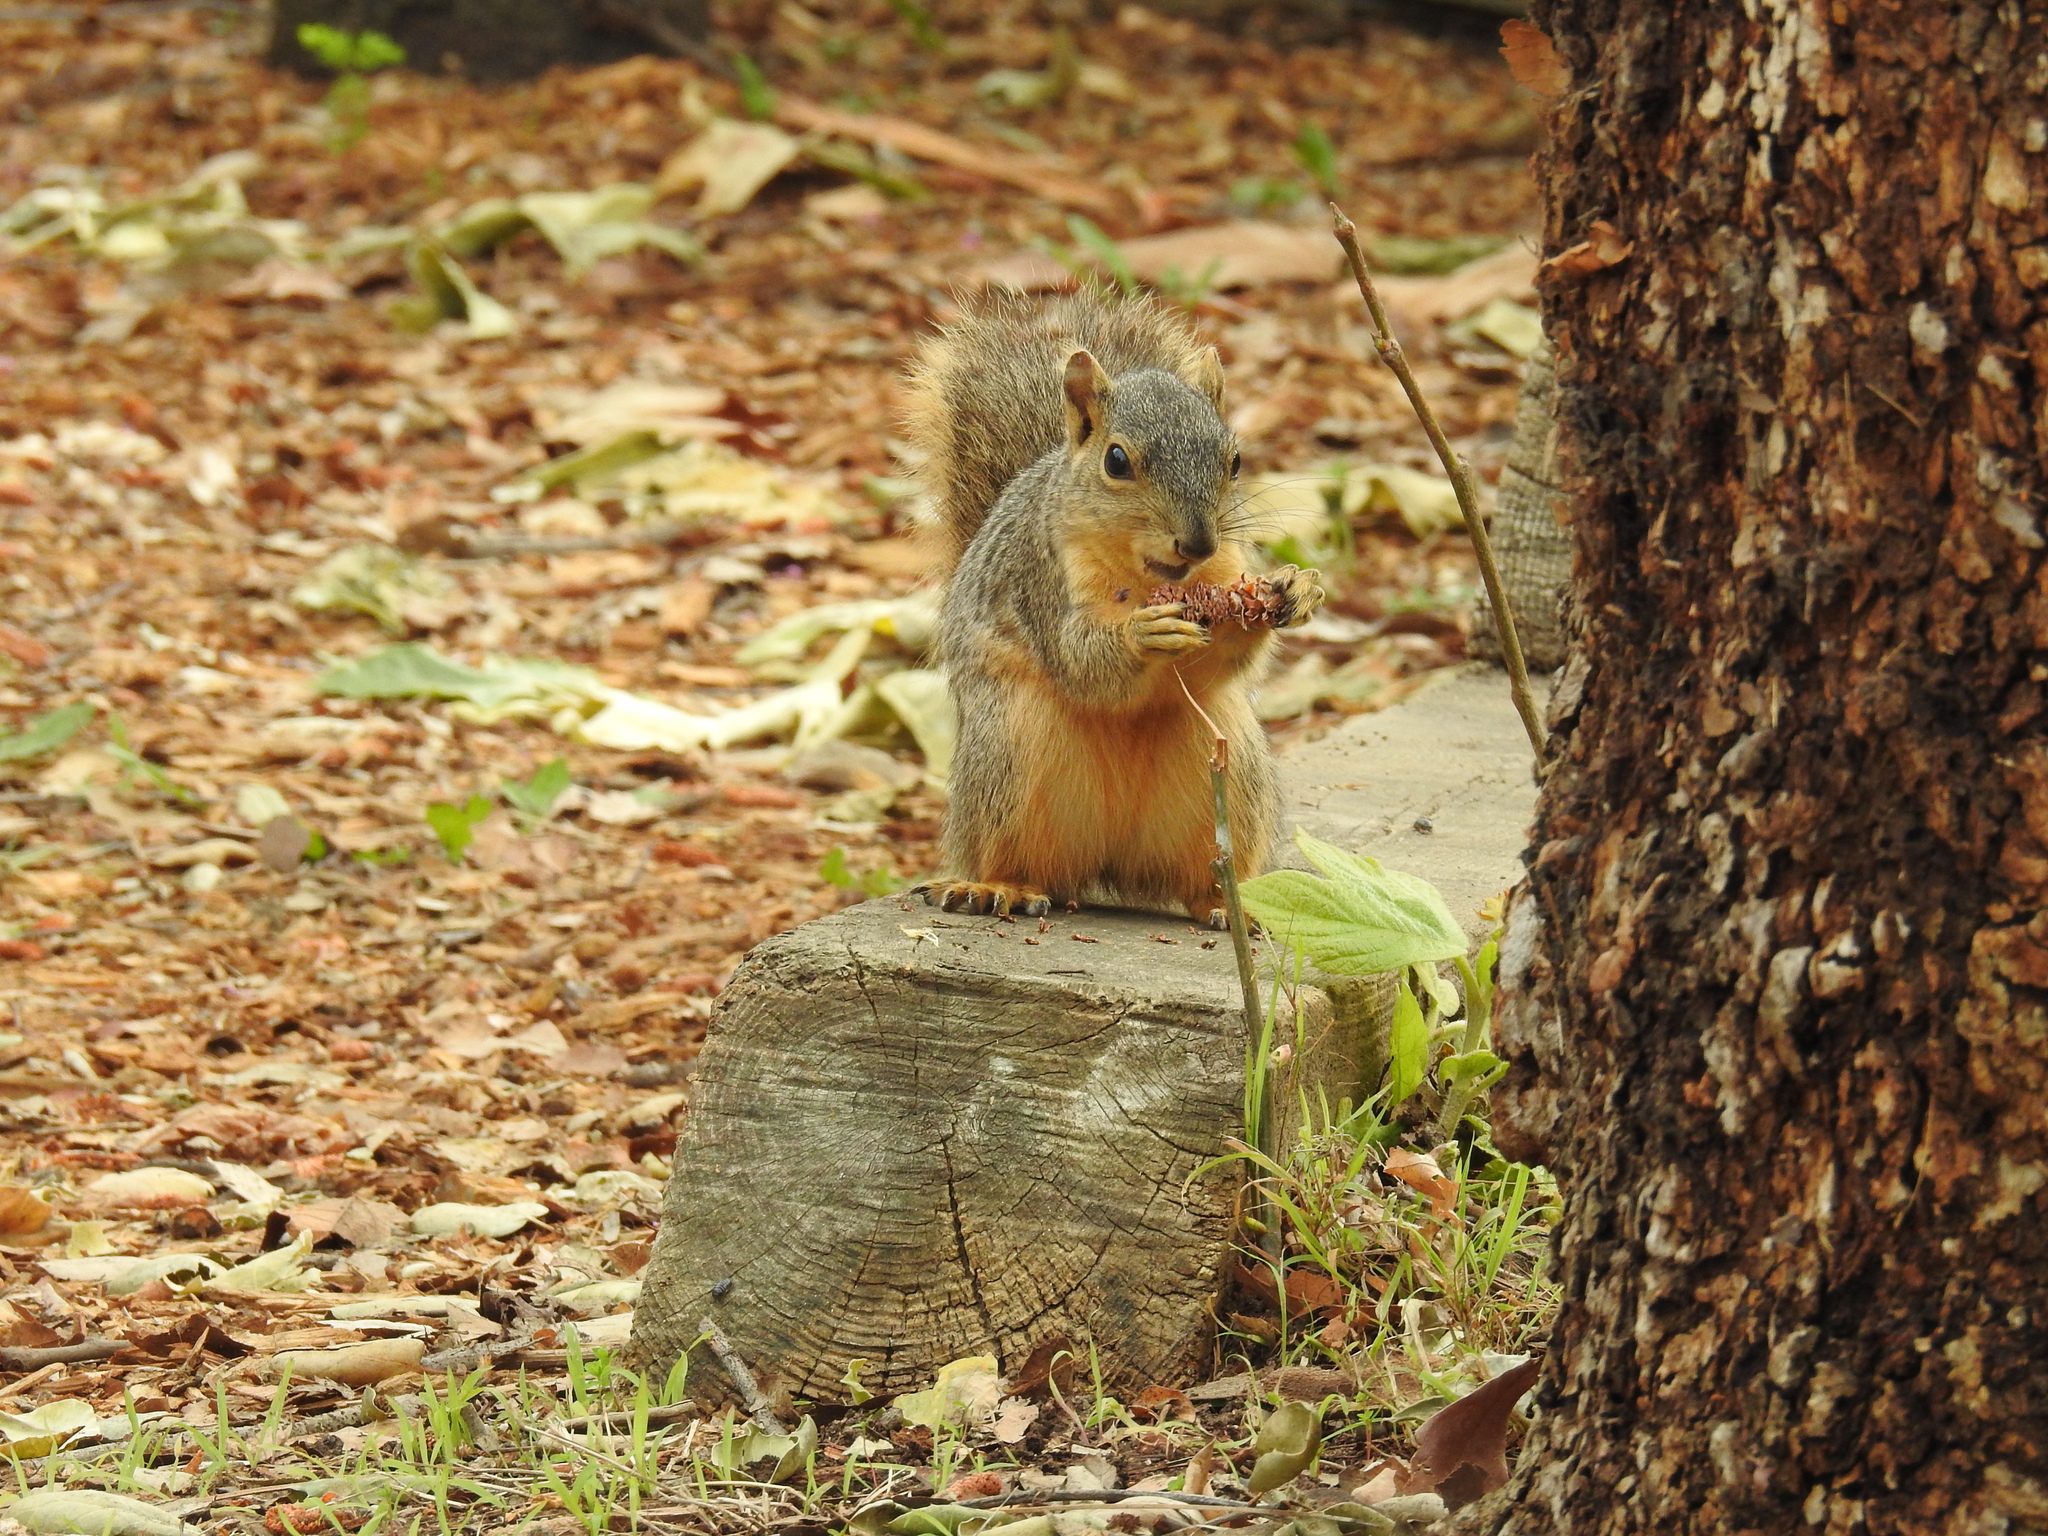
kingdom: Animalia
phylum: Chordata
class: Mammalia
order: Rodentia
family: Sciuridae
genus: Sciurus
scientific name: Sciurus niger
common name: Fox squirrel
